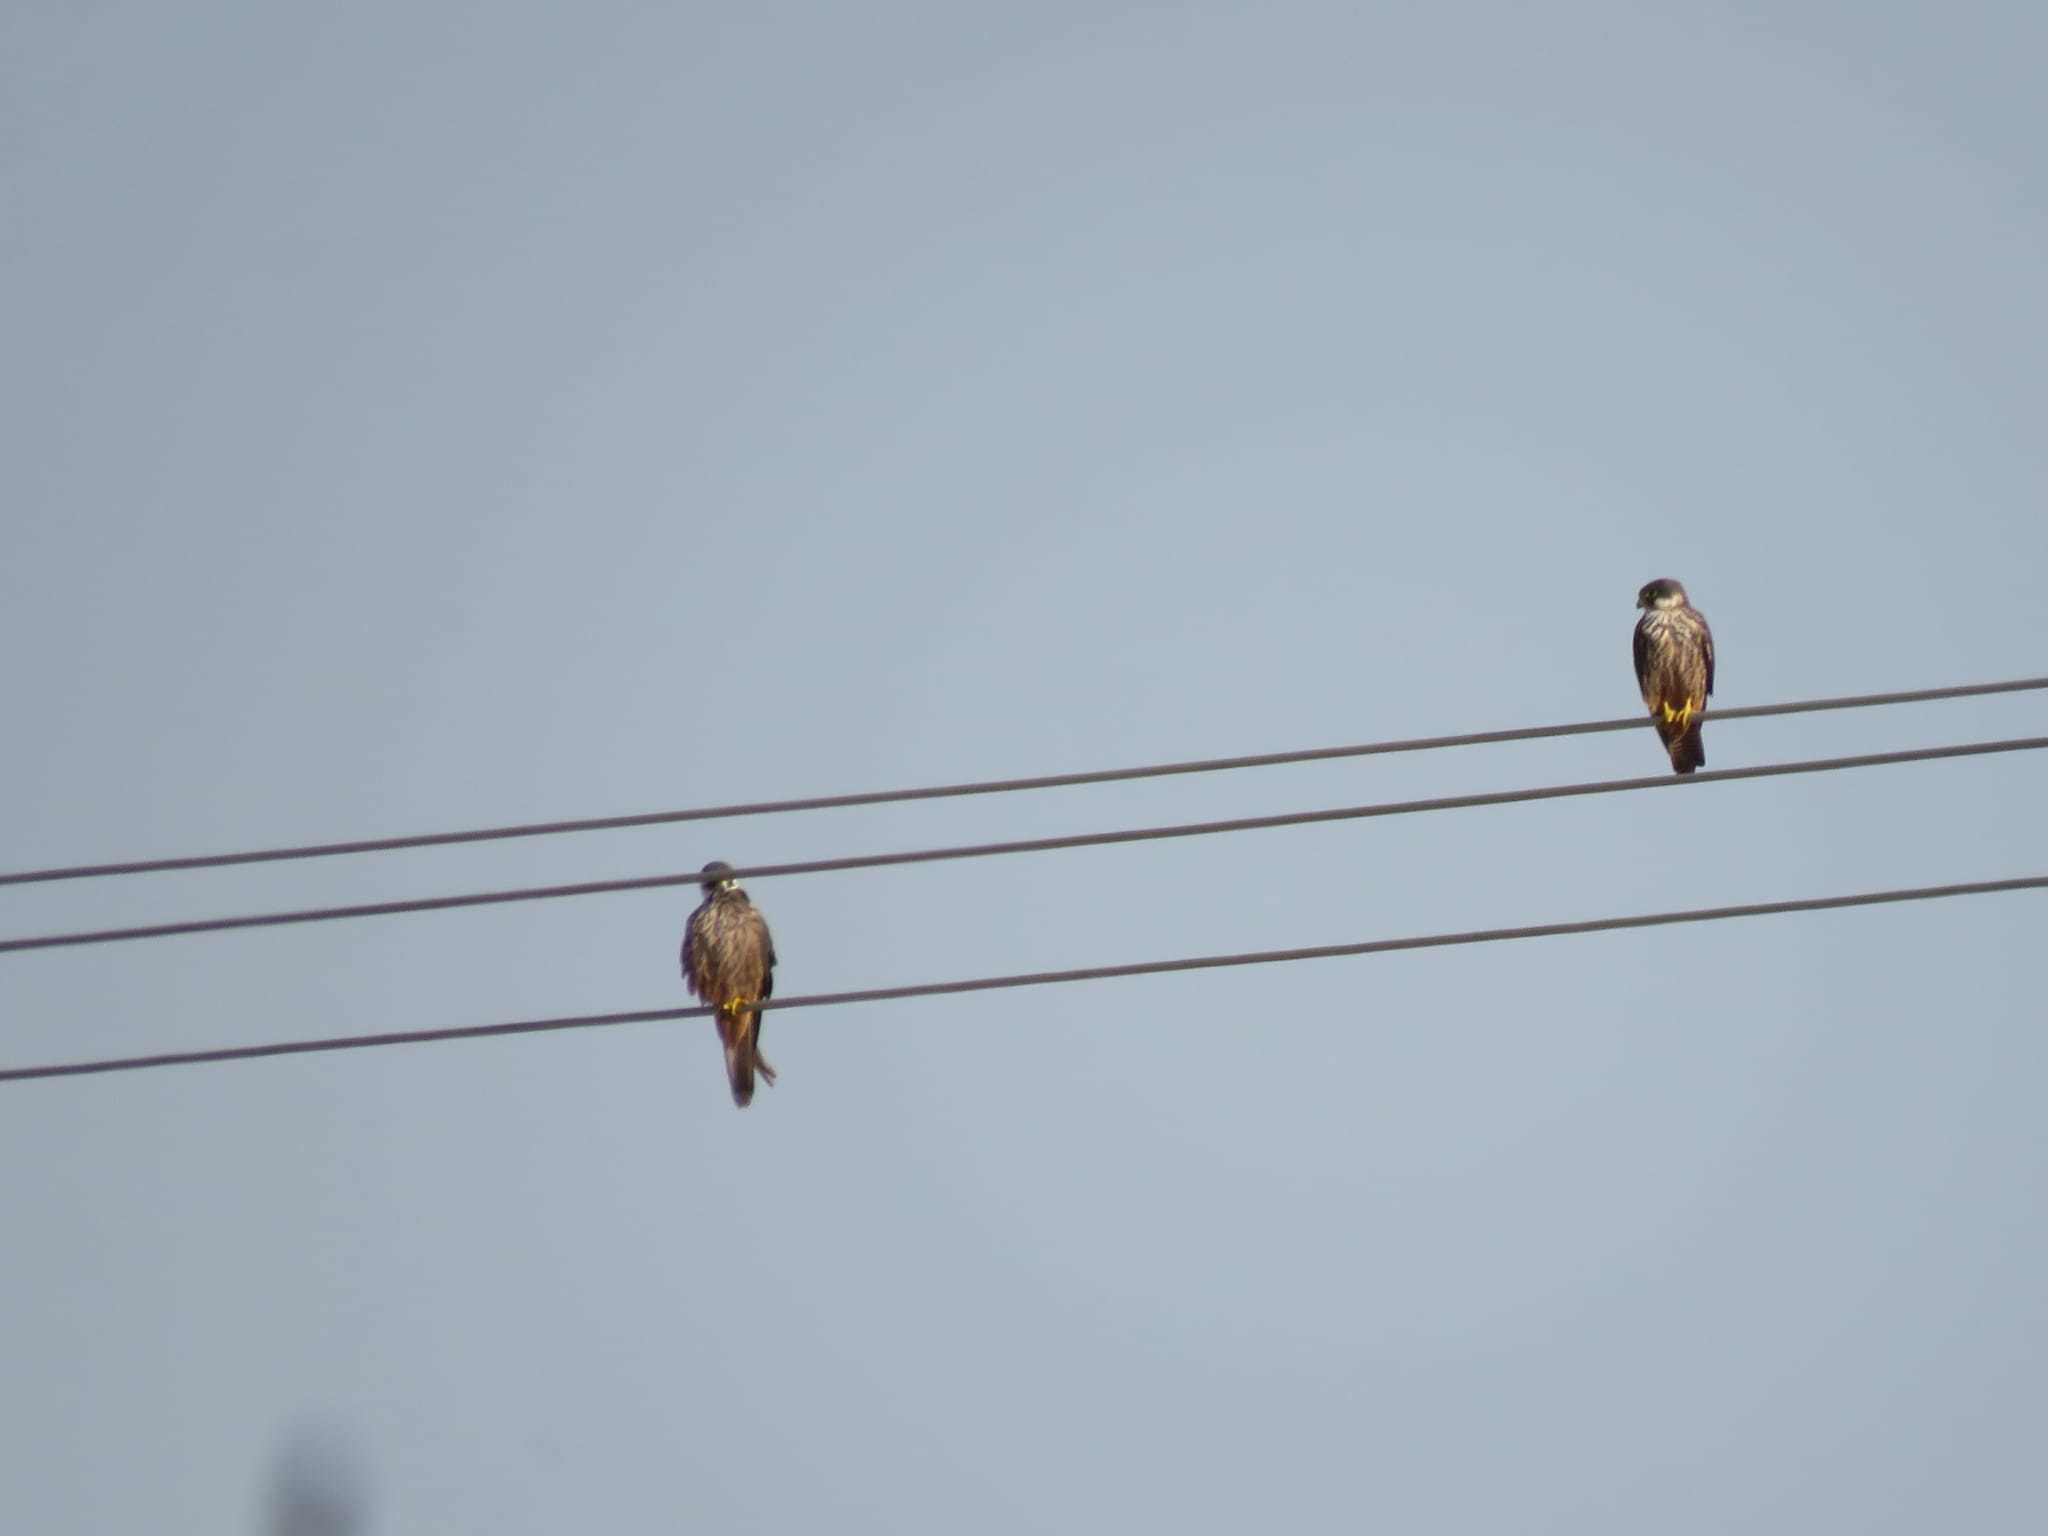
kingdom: Animalia
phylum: Chordata
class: Aves
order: Falconiformes
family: Falconidae
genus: Falco
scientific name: Falco eleonorae
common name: Eleonora's falcon
